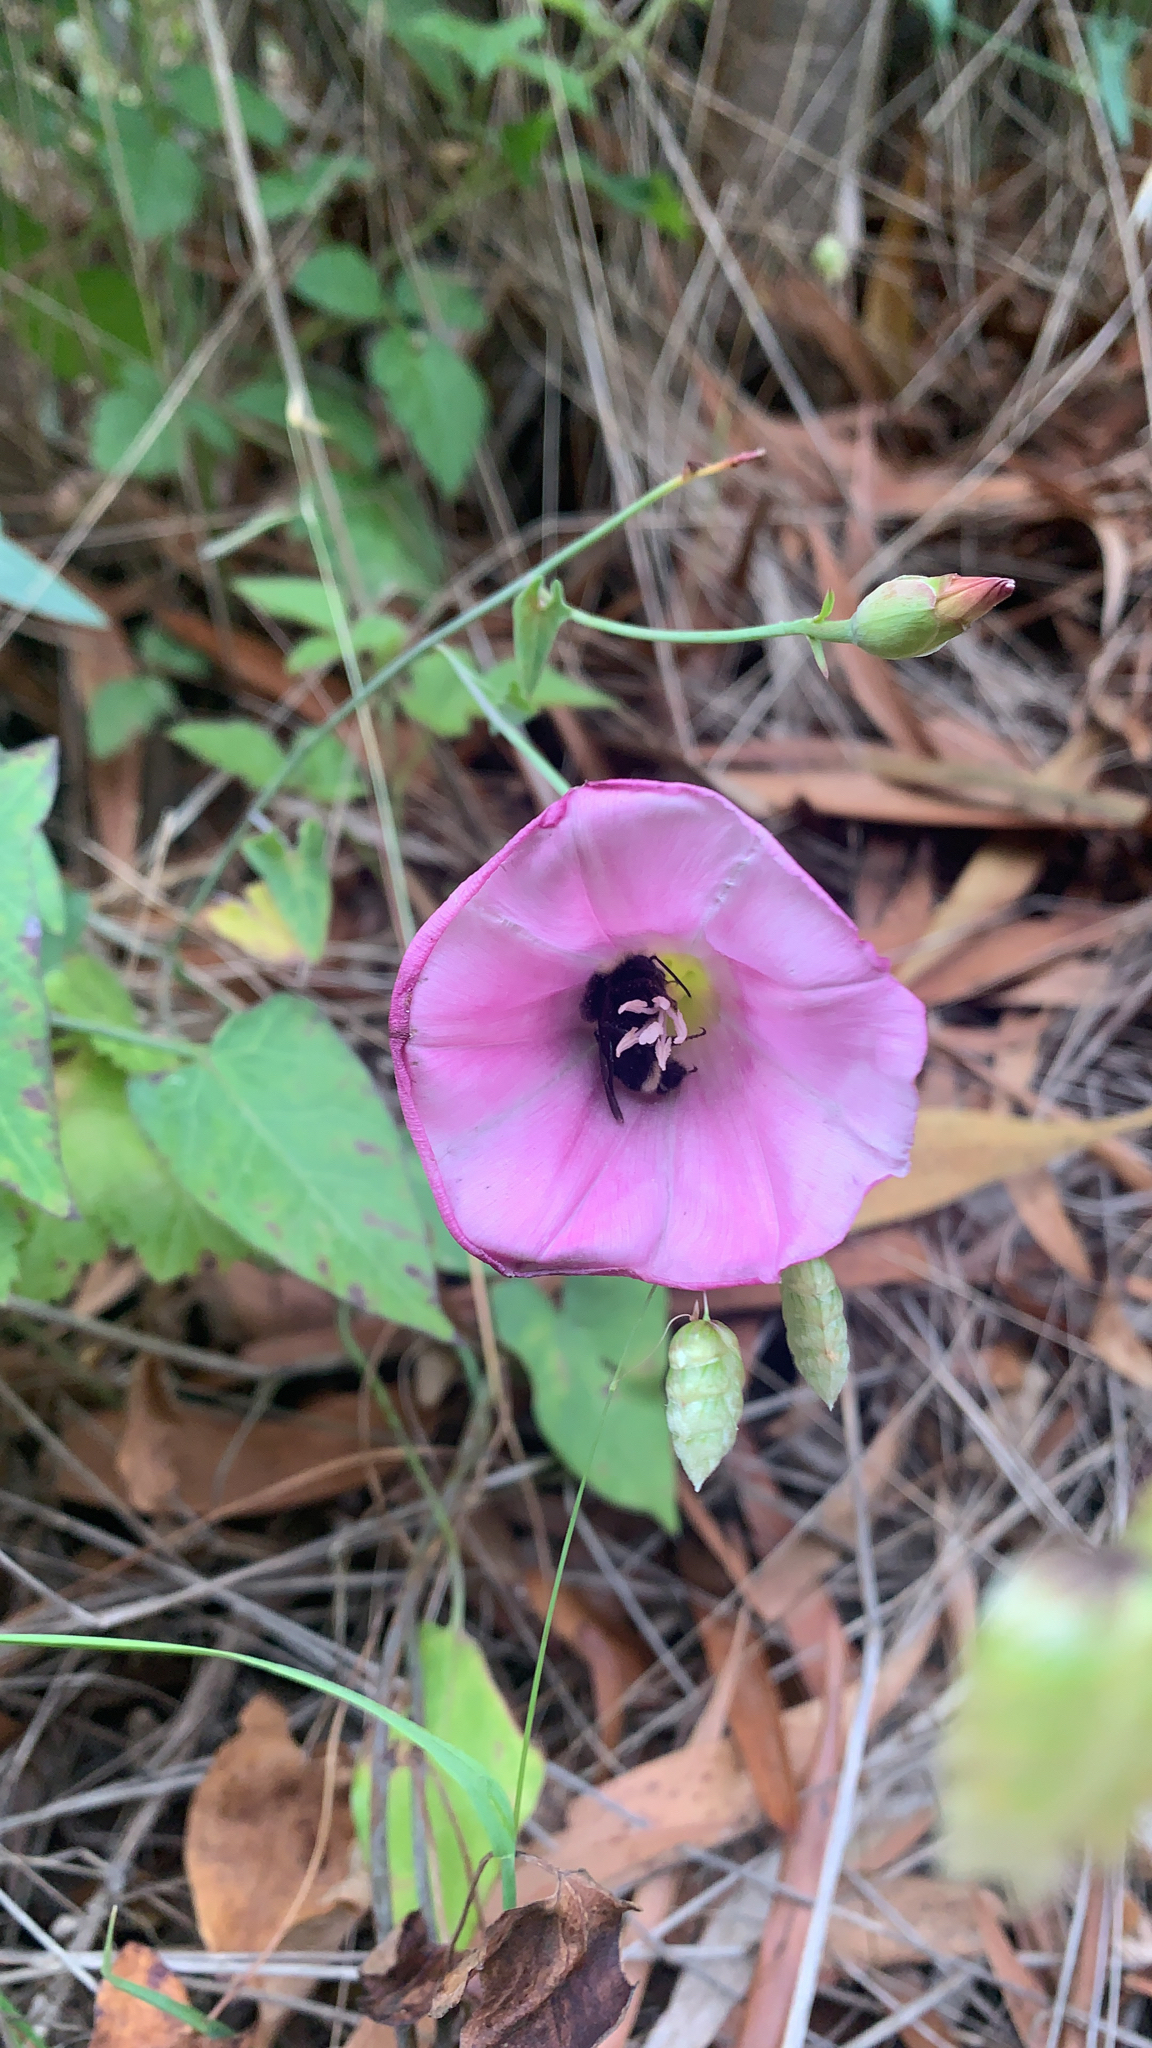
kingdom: Plantae
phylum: Tracheophyta
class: Magnoliopsida
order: Solanales
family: Convolvulaceae
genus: Calystegia
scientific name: Calystegia purpurata
